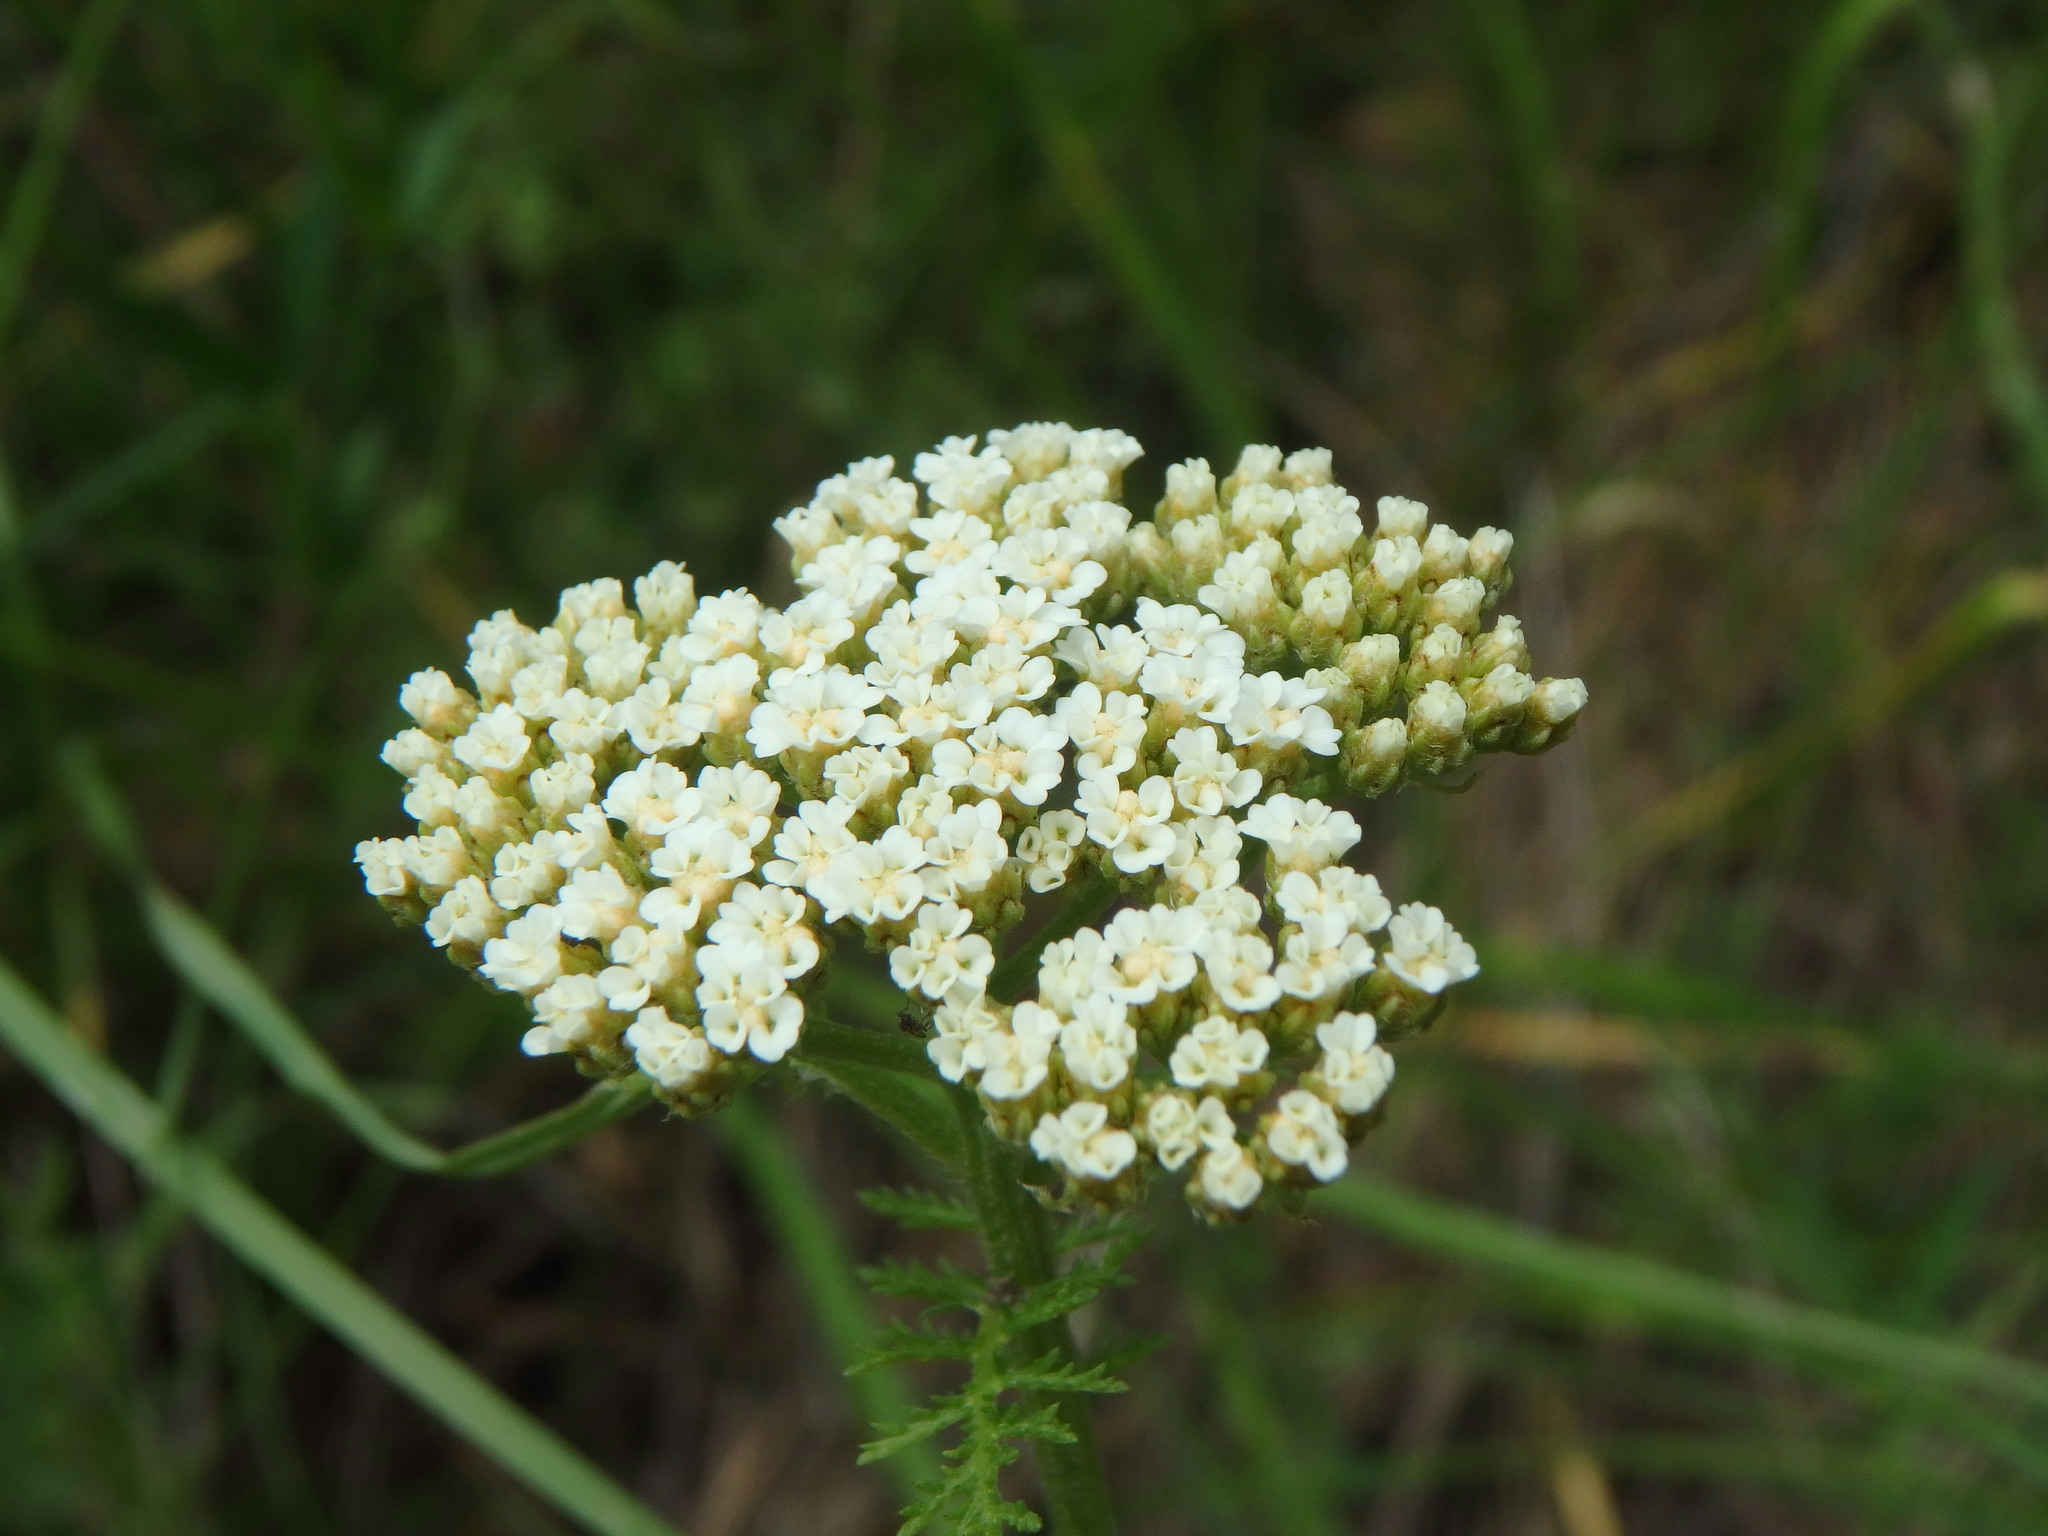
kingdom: Plantae
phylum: Tracheophyta
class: Magnoliopsida
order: Asterales
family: Asteraceae
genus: Achillea
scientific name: Achillea nobilis
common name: Noble yarrow
